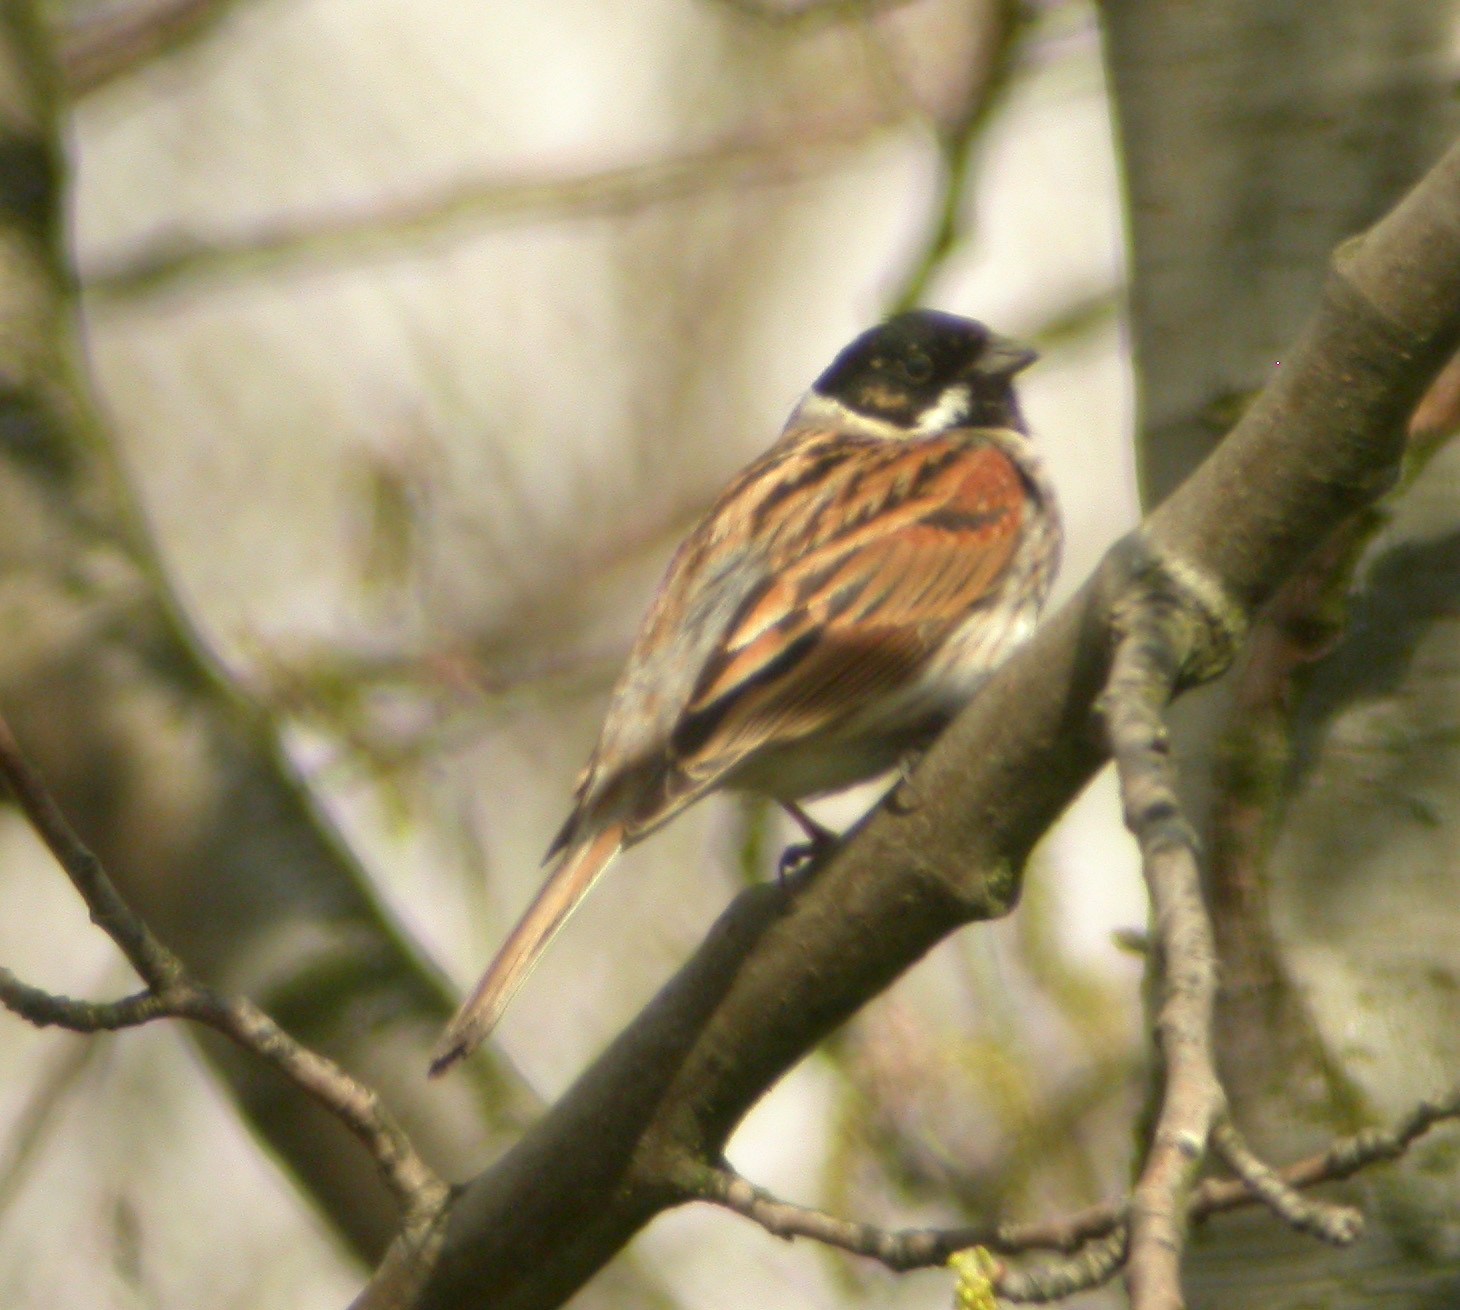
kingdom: Animalia
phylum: Chordata
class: Aves
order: Passeriformes
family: Emberizidae
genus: Emberiza
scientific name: Emberiza schoeniclus
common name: Reed bunting
